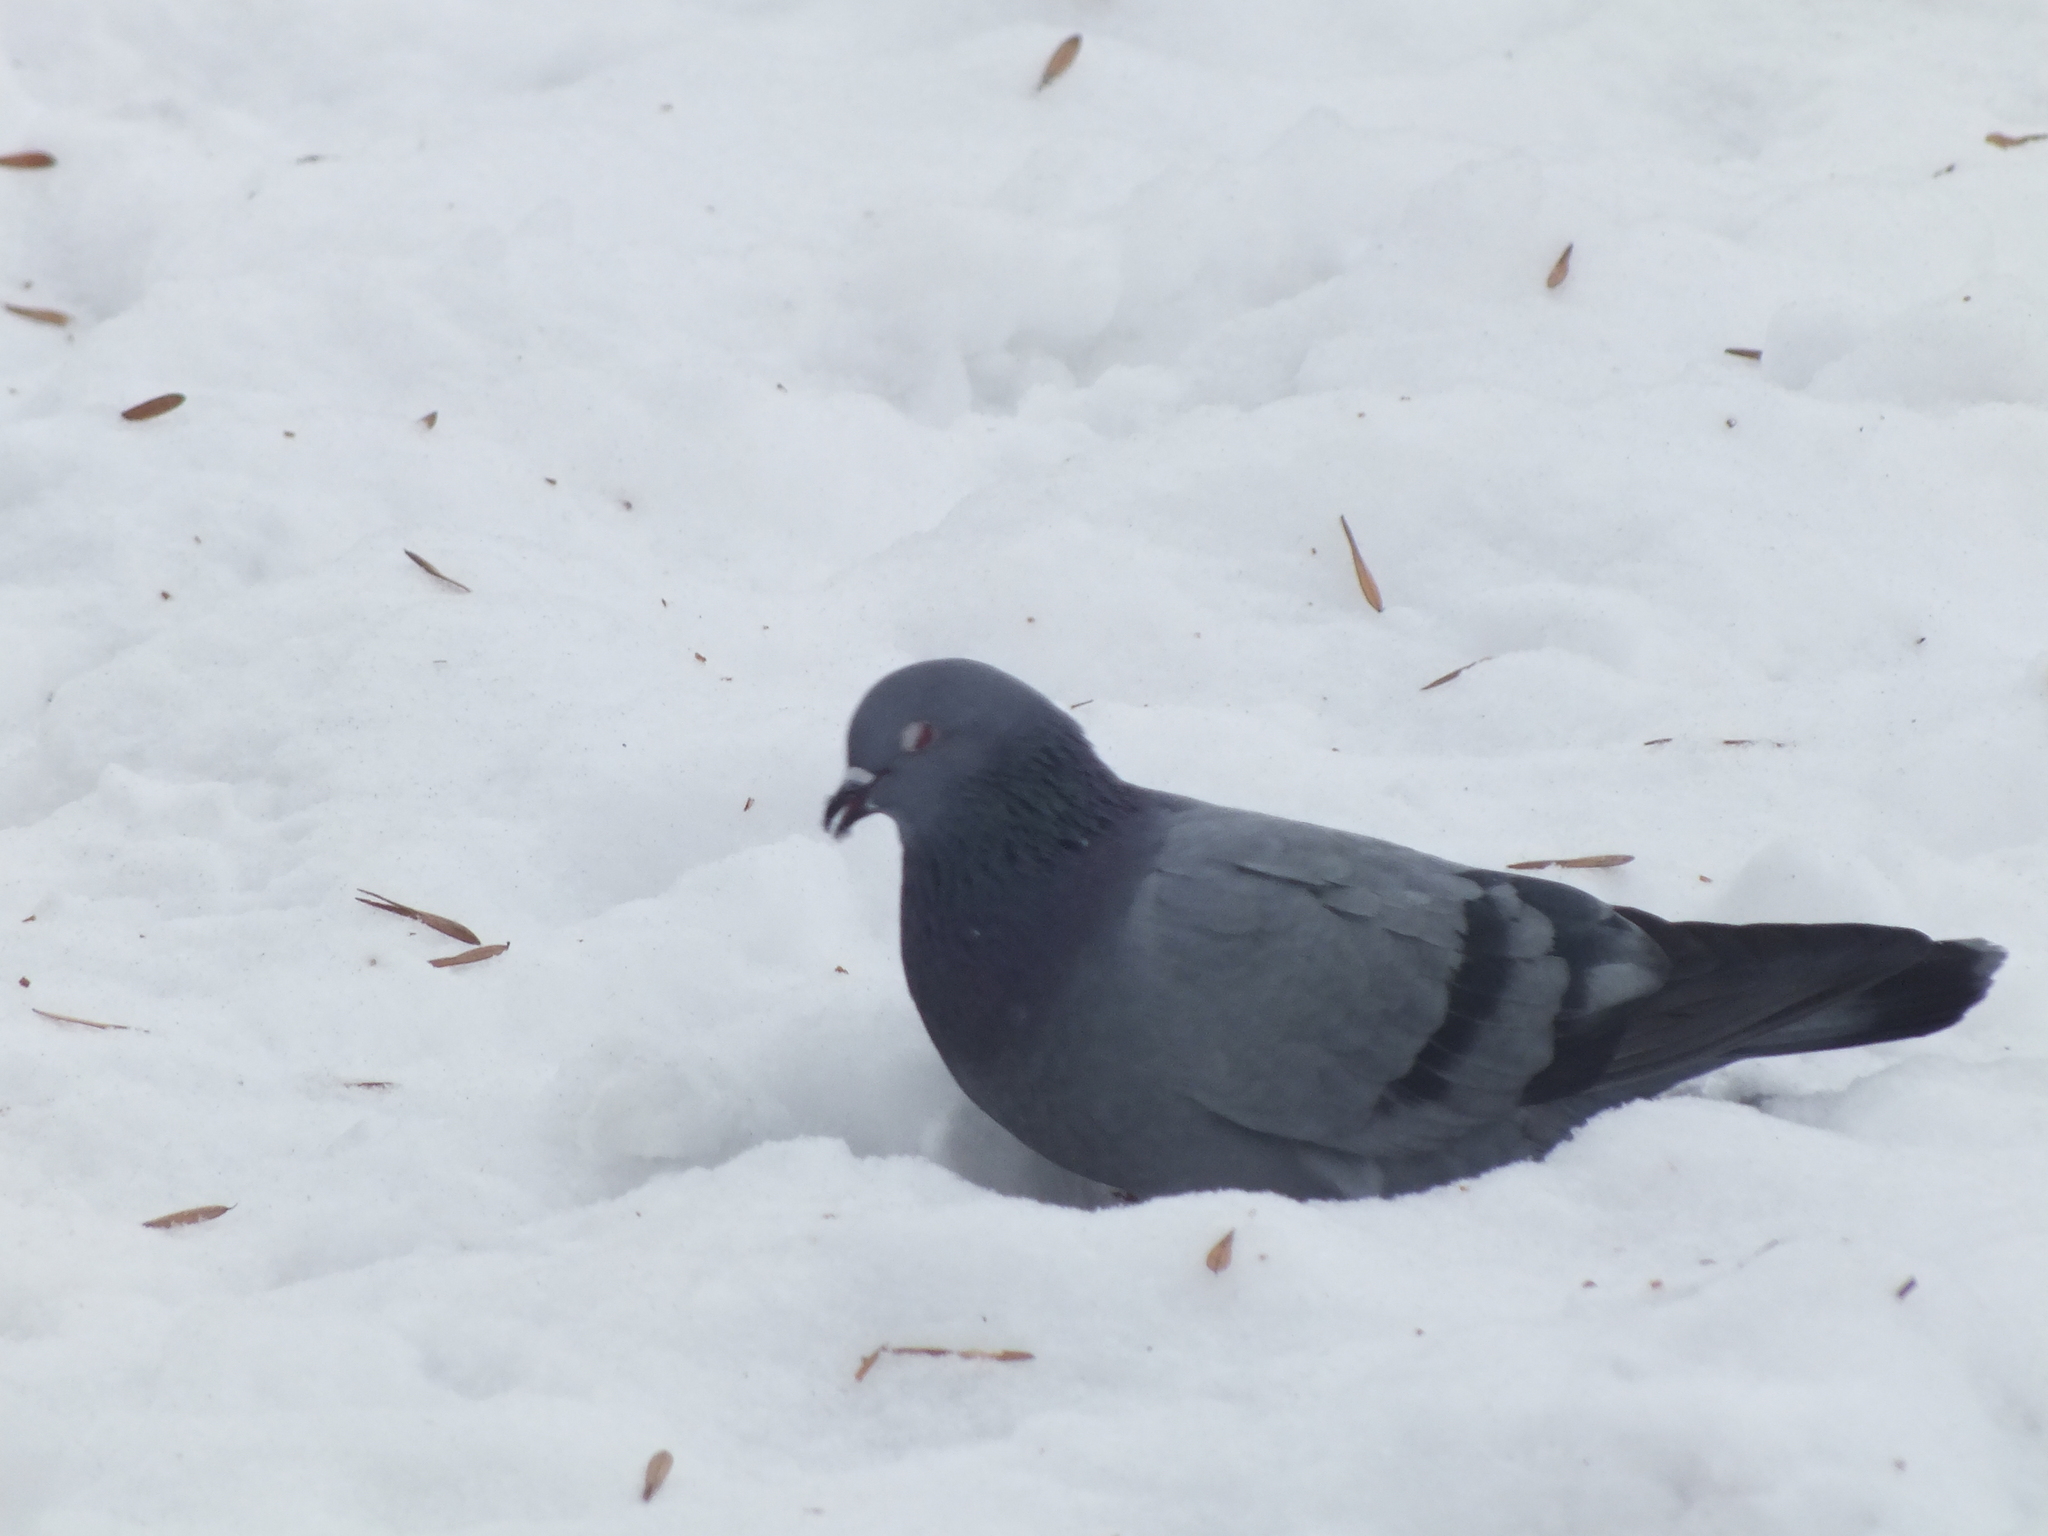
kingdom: Animalia
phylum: Chordata
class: Aves
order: Columbiformes
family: Columbidae
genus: Columba
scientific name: Columba livia
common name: Rock pigeon
